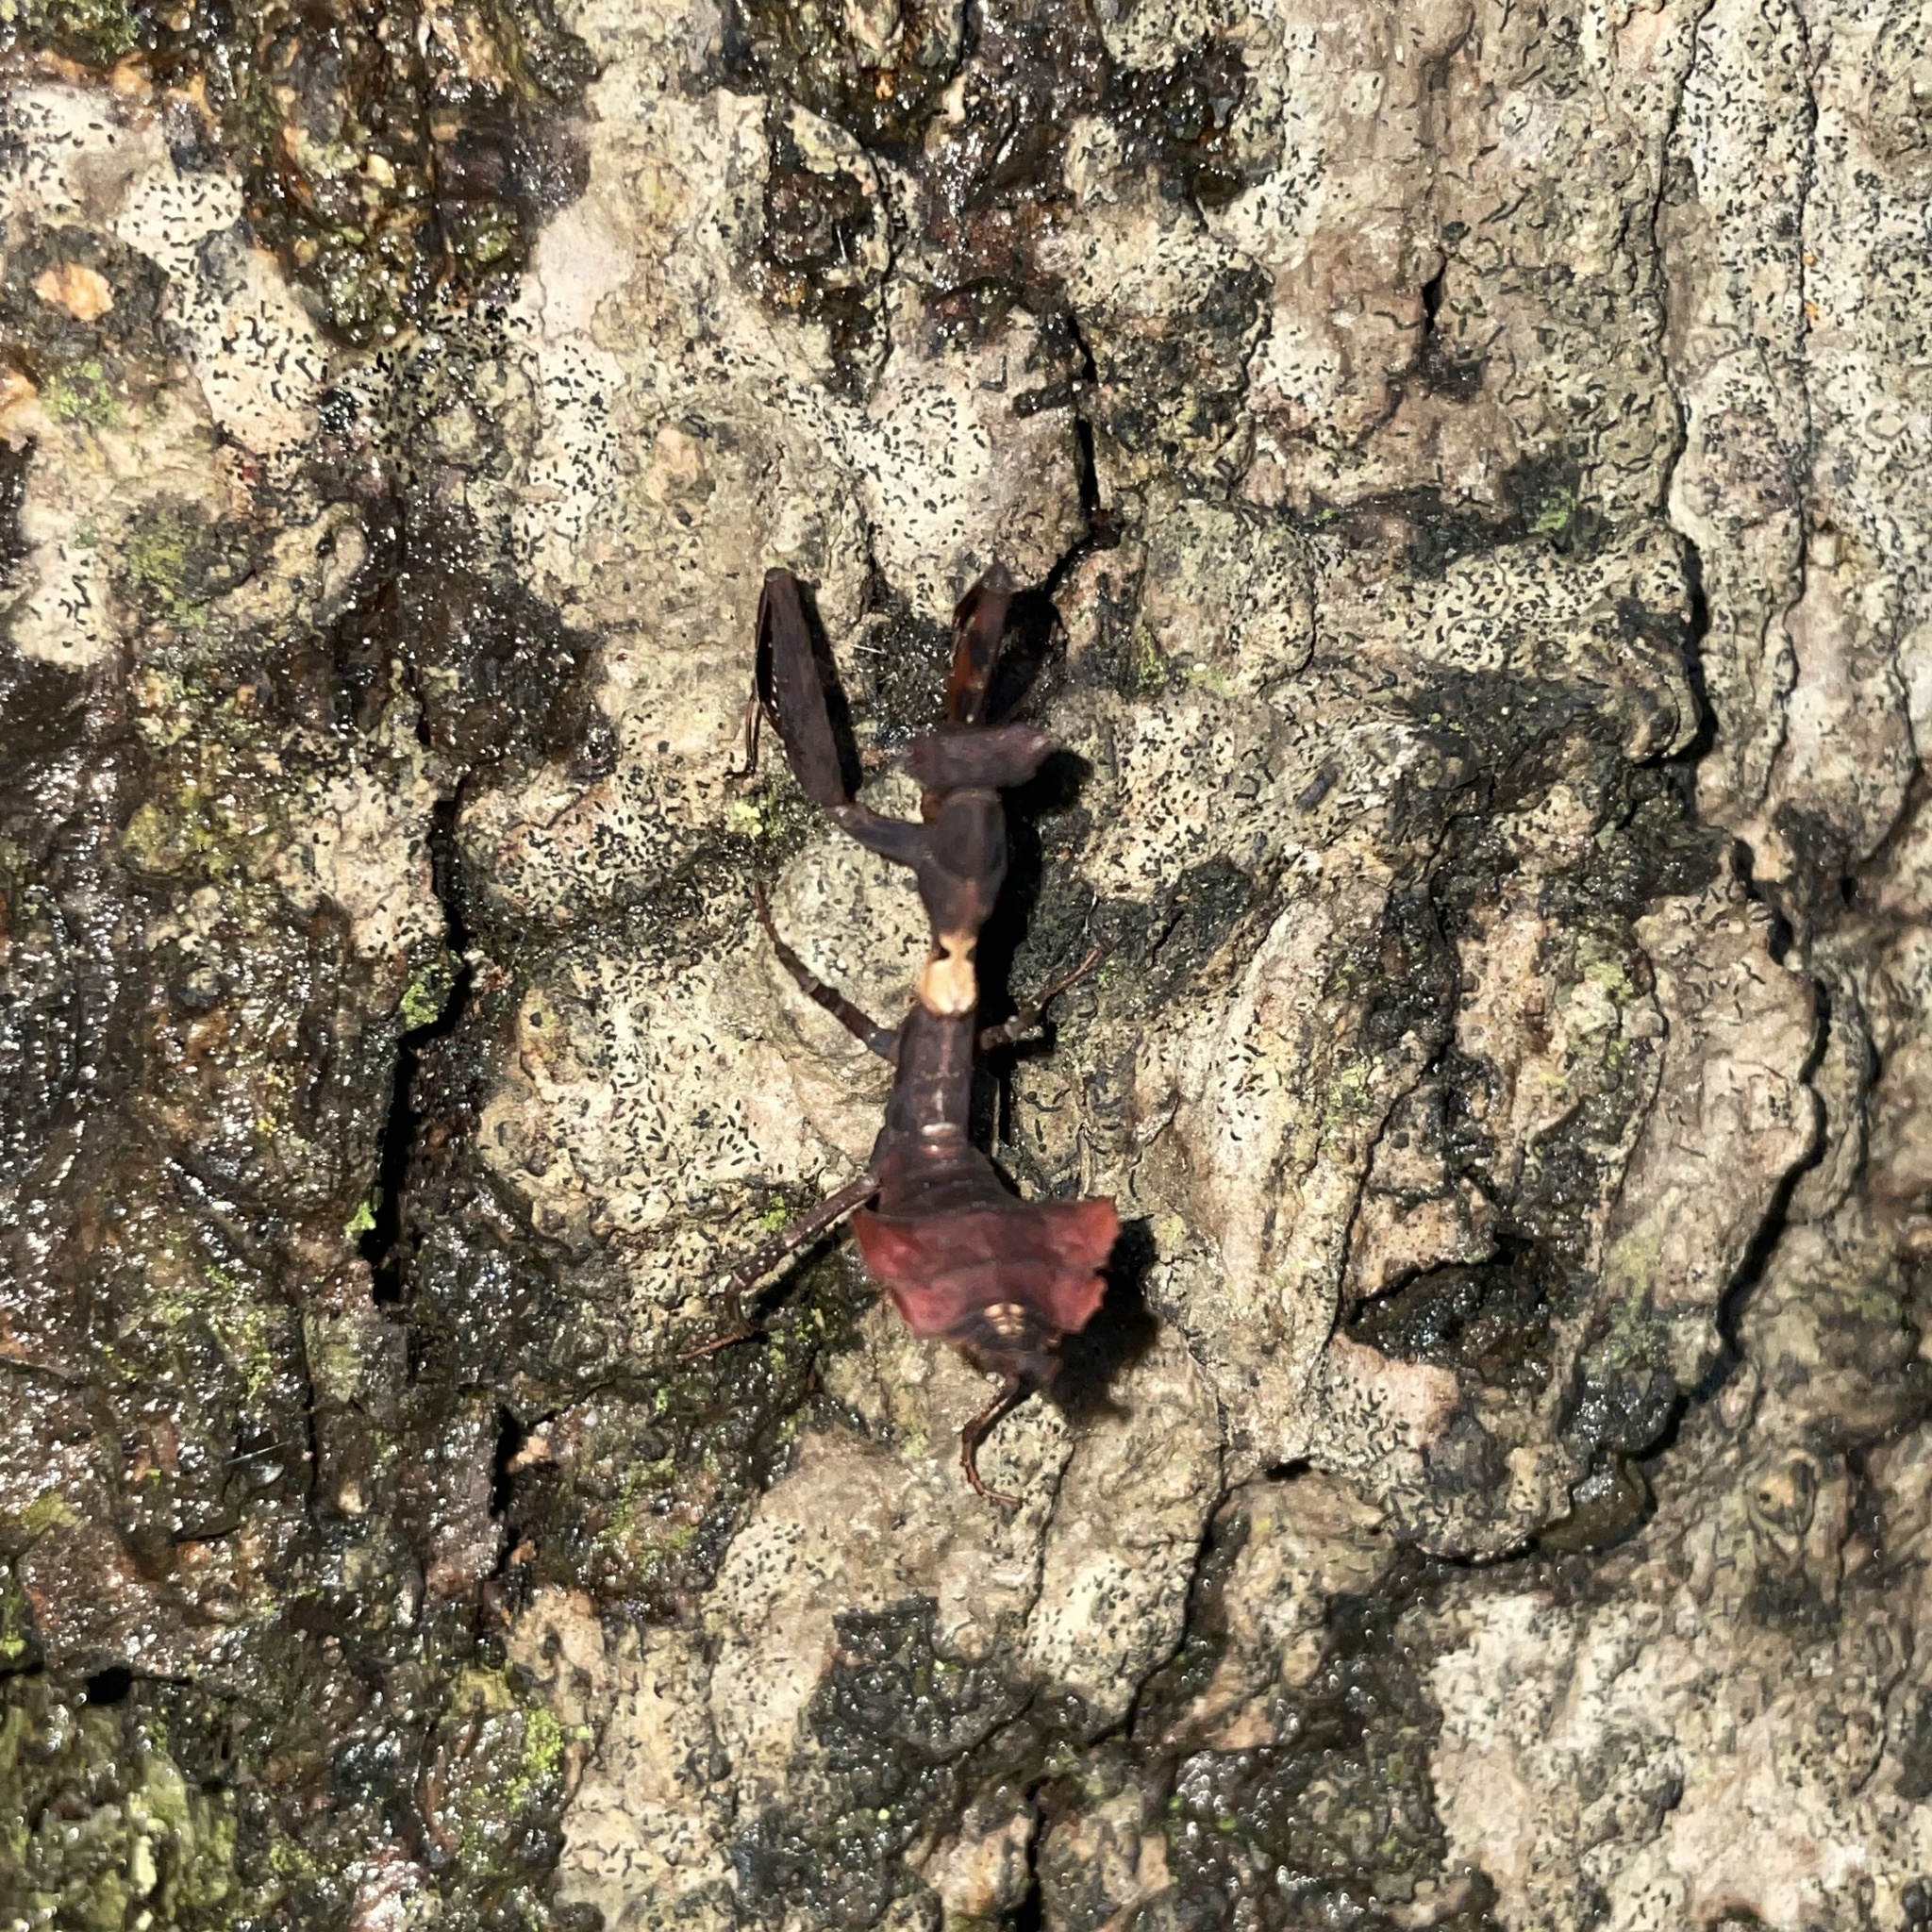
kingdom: Animalia
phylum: Arthropoda
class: Insecta
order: Mantodea
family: Acanthopidae
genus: Acanthops
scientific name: Acanthops parafalcata
